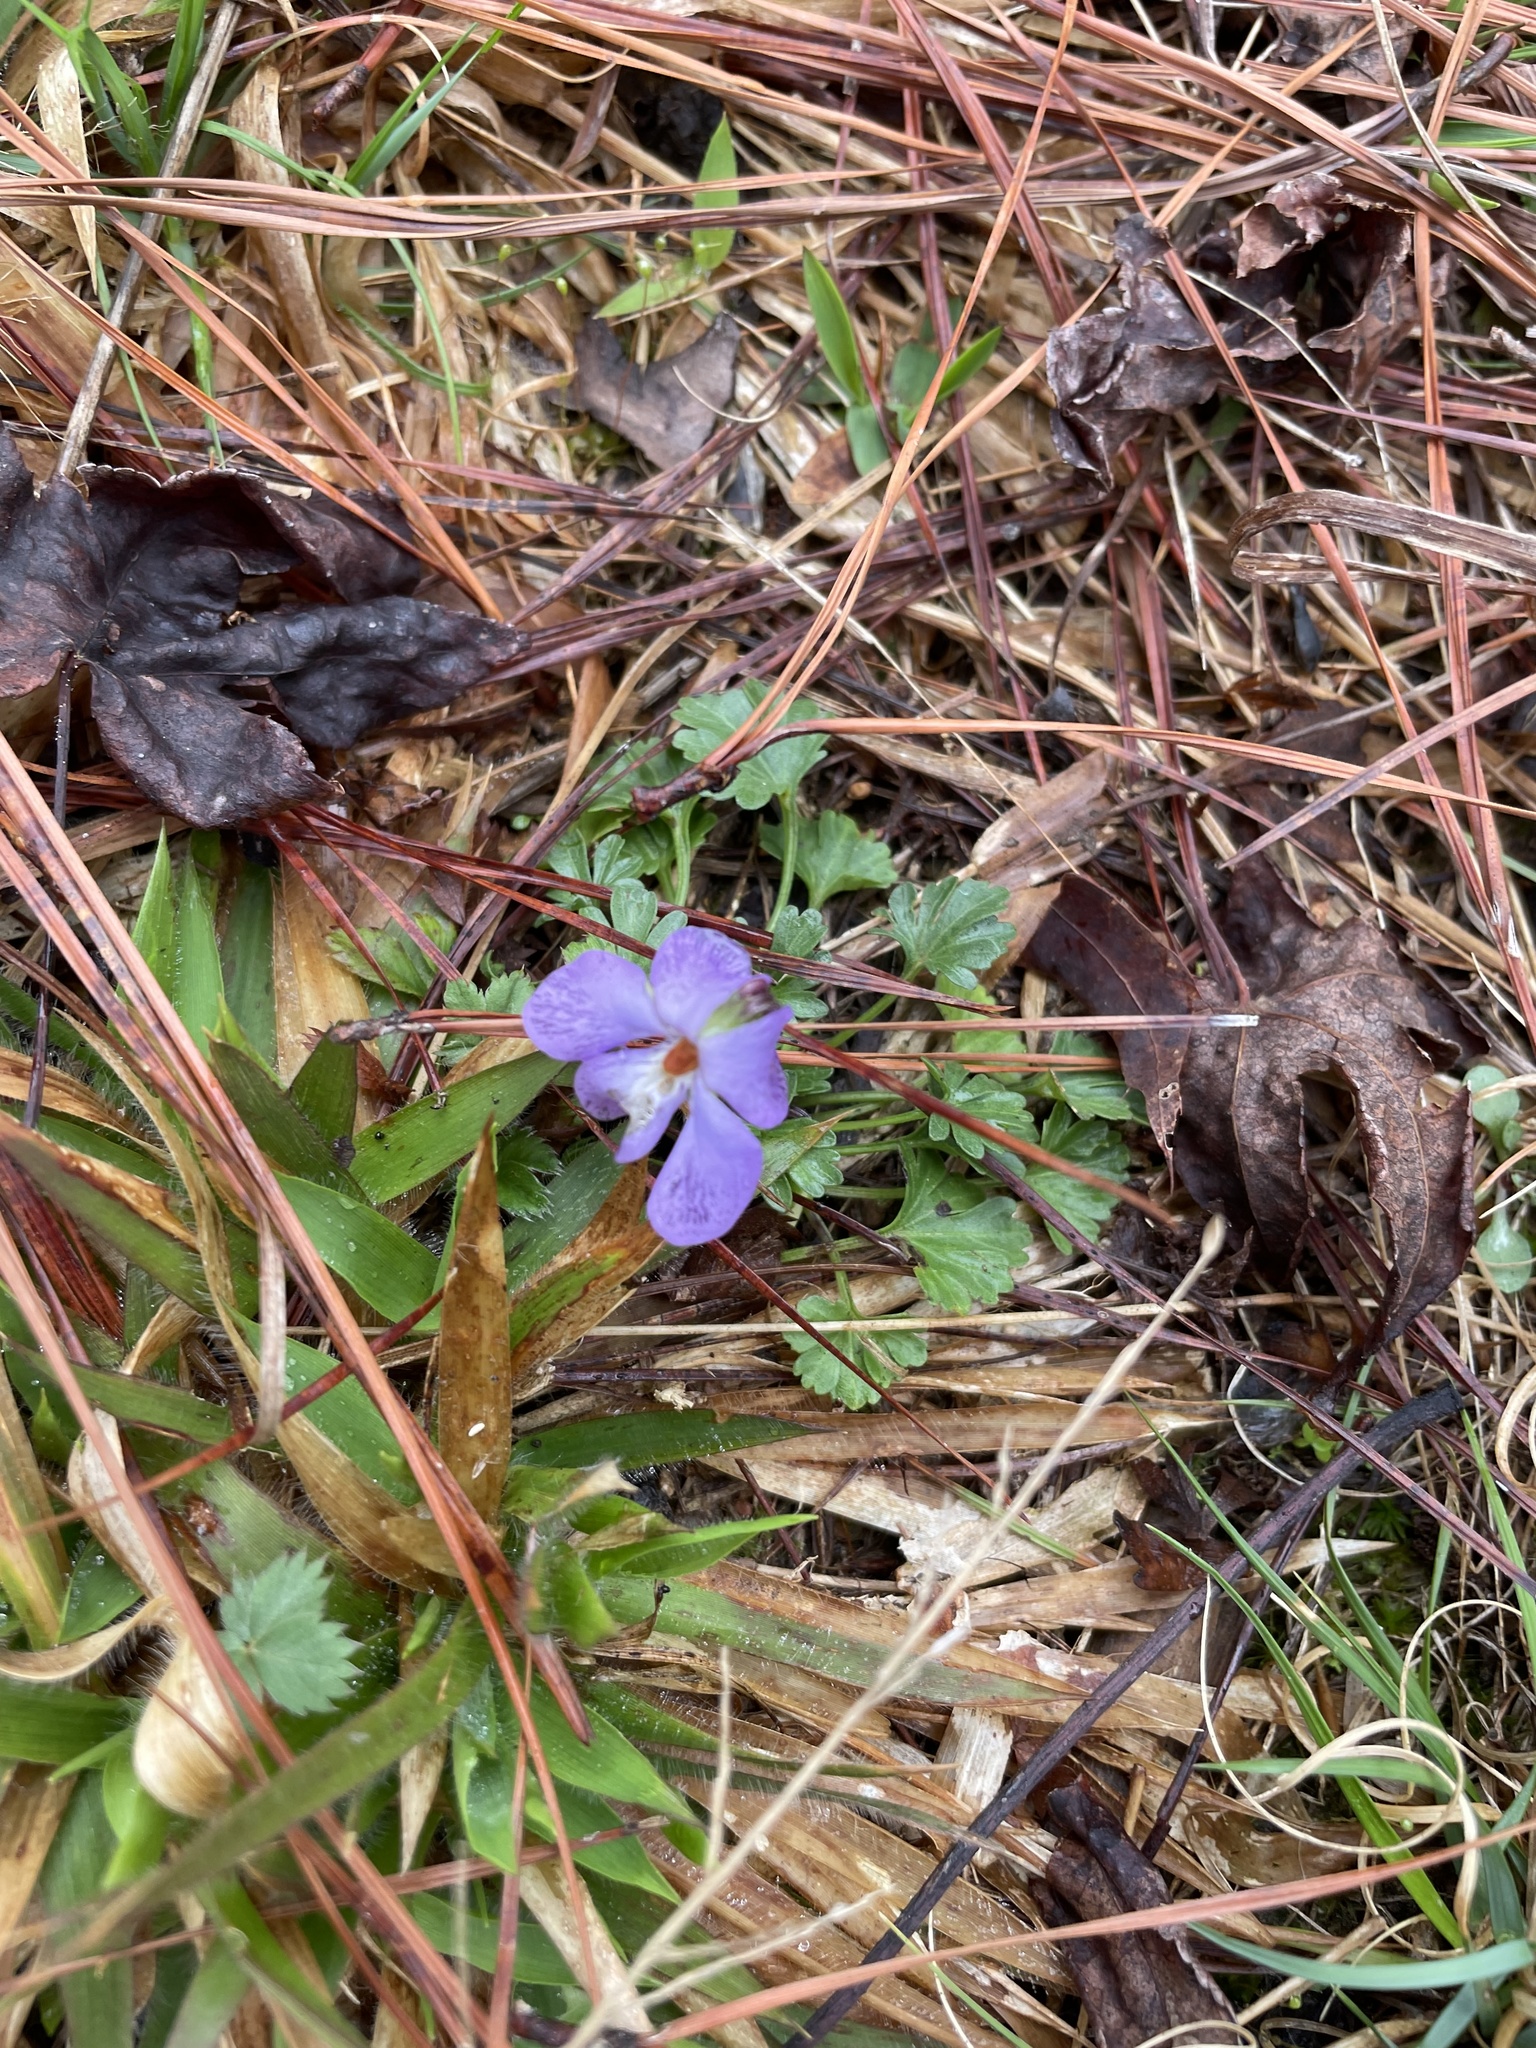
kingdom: Plantae
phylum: Tracheophyta
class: Magnoliopsida
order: Malpighiales
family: Violaceae
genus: Viola
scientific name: Viola pedata
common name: Pansy violet
